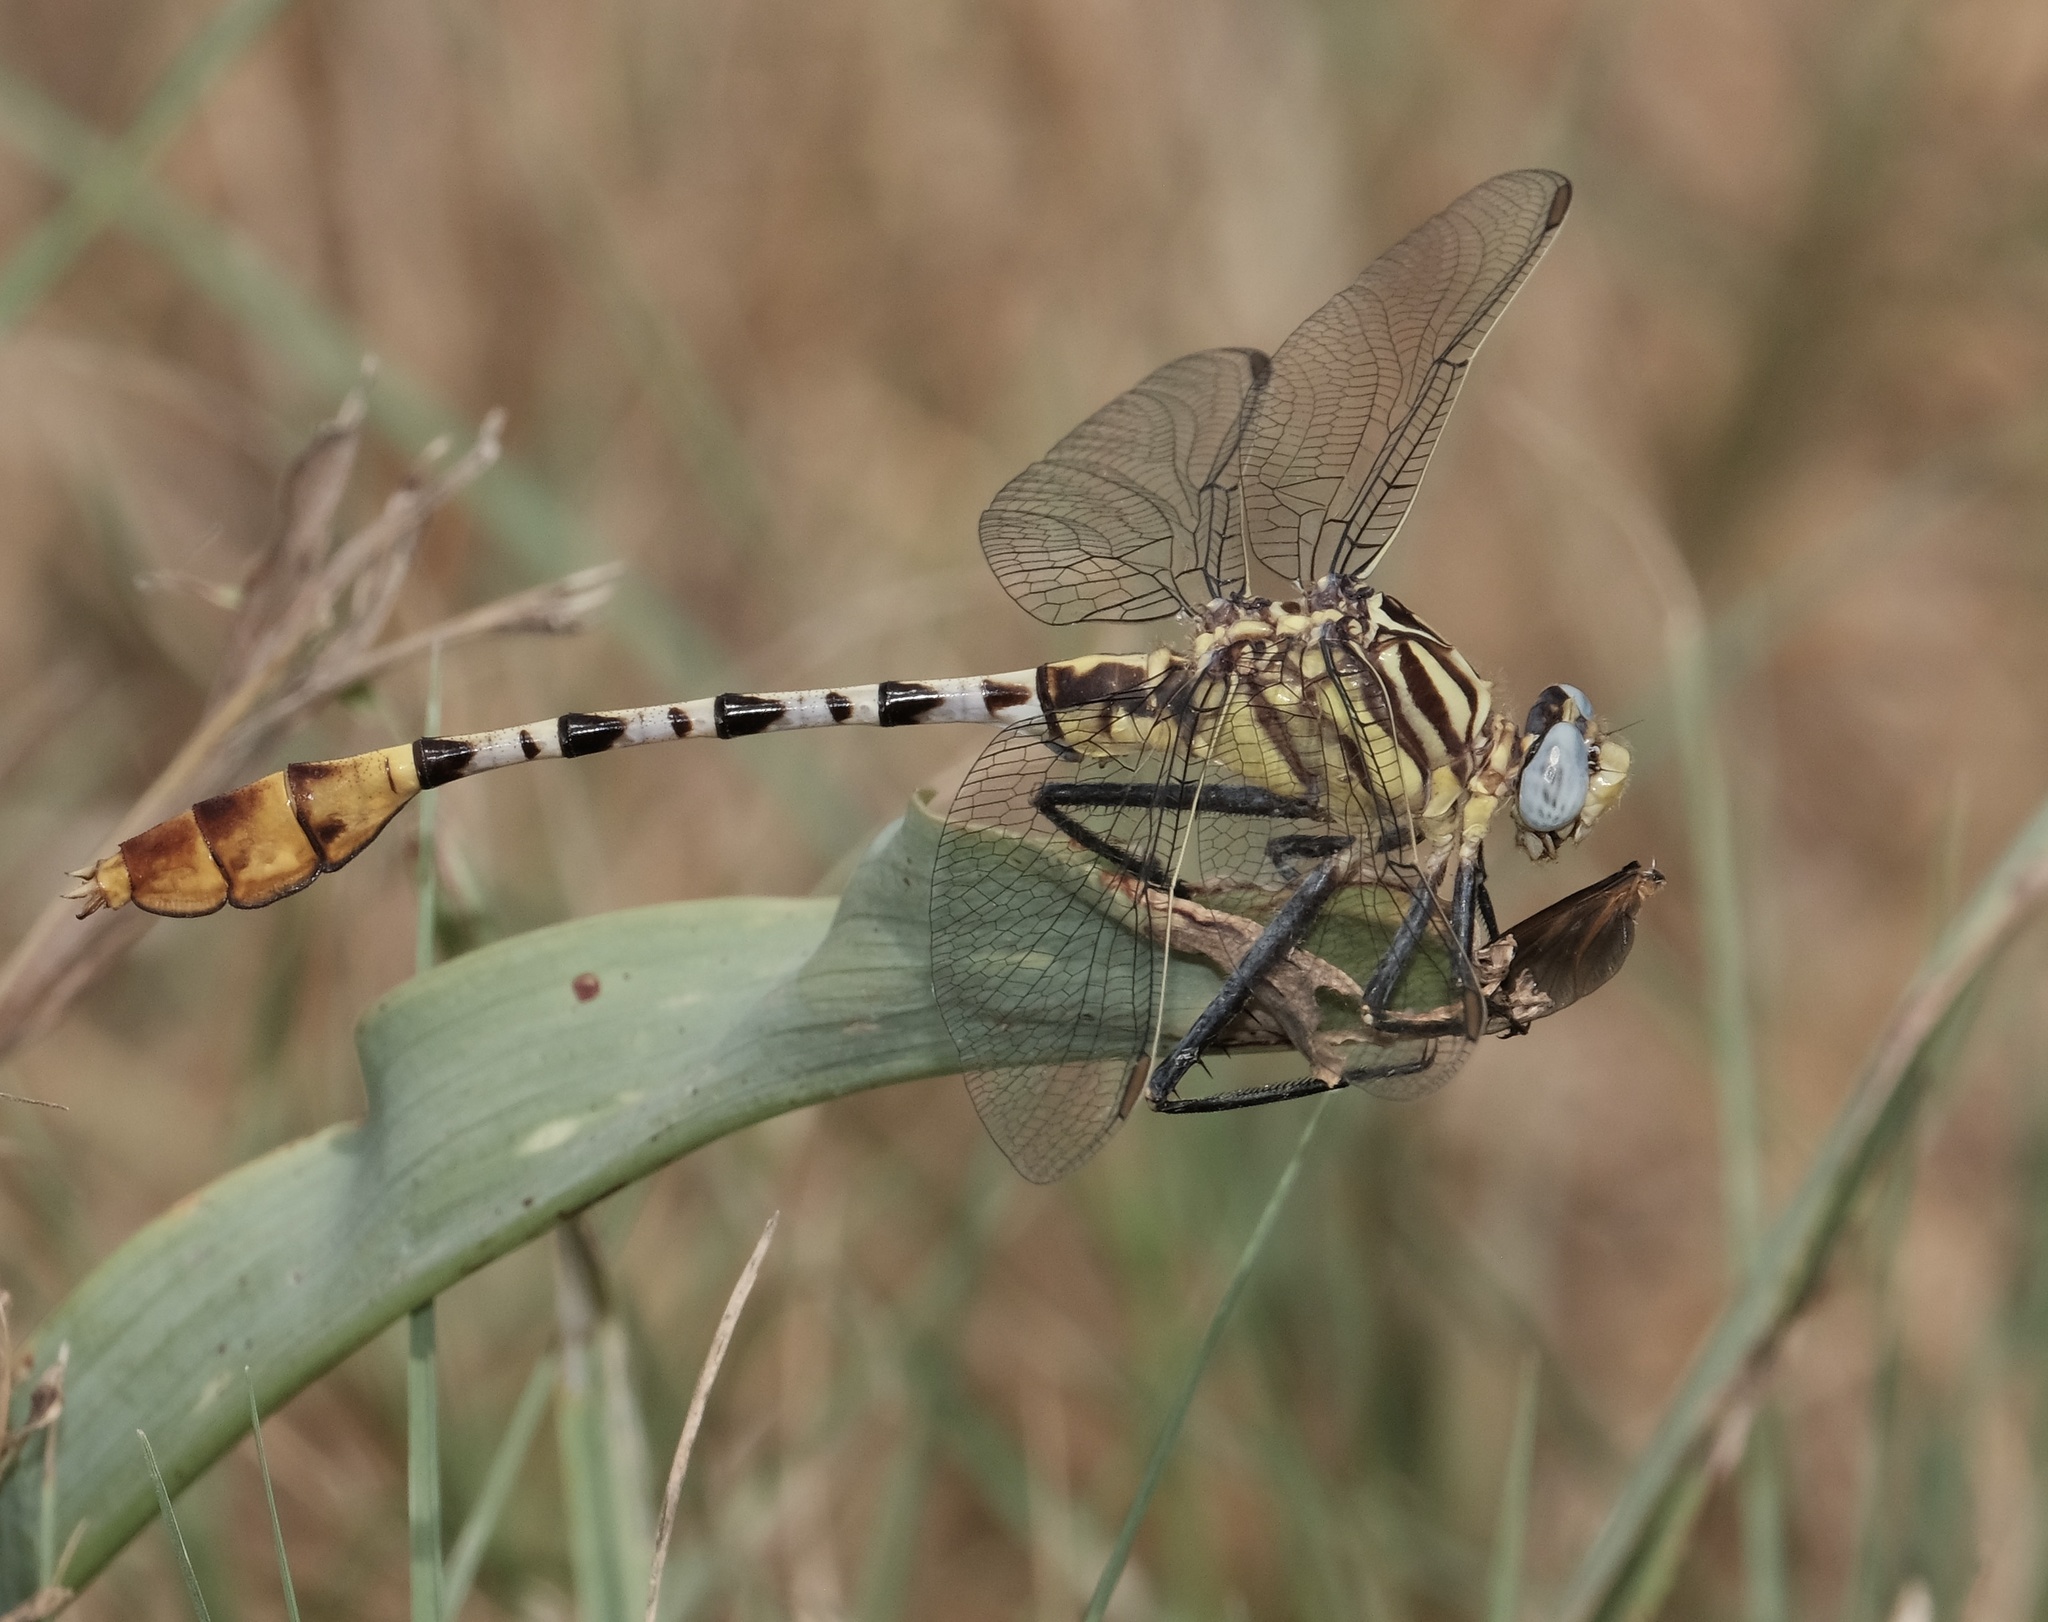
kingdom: Animalia
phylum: Arthropoda
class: Insecta
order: Odonata
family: Gomphidae
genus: Dromogomphus
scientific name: Dromogomphus spoliatus
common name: Flag-tailed spinyleg
